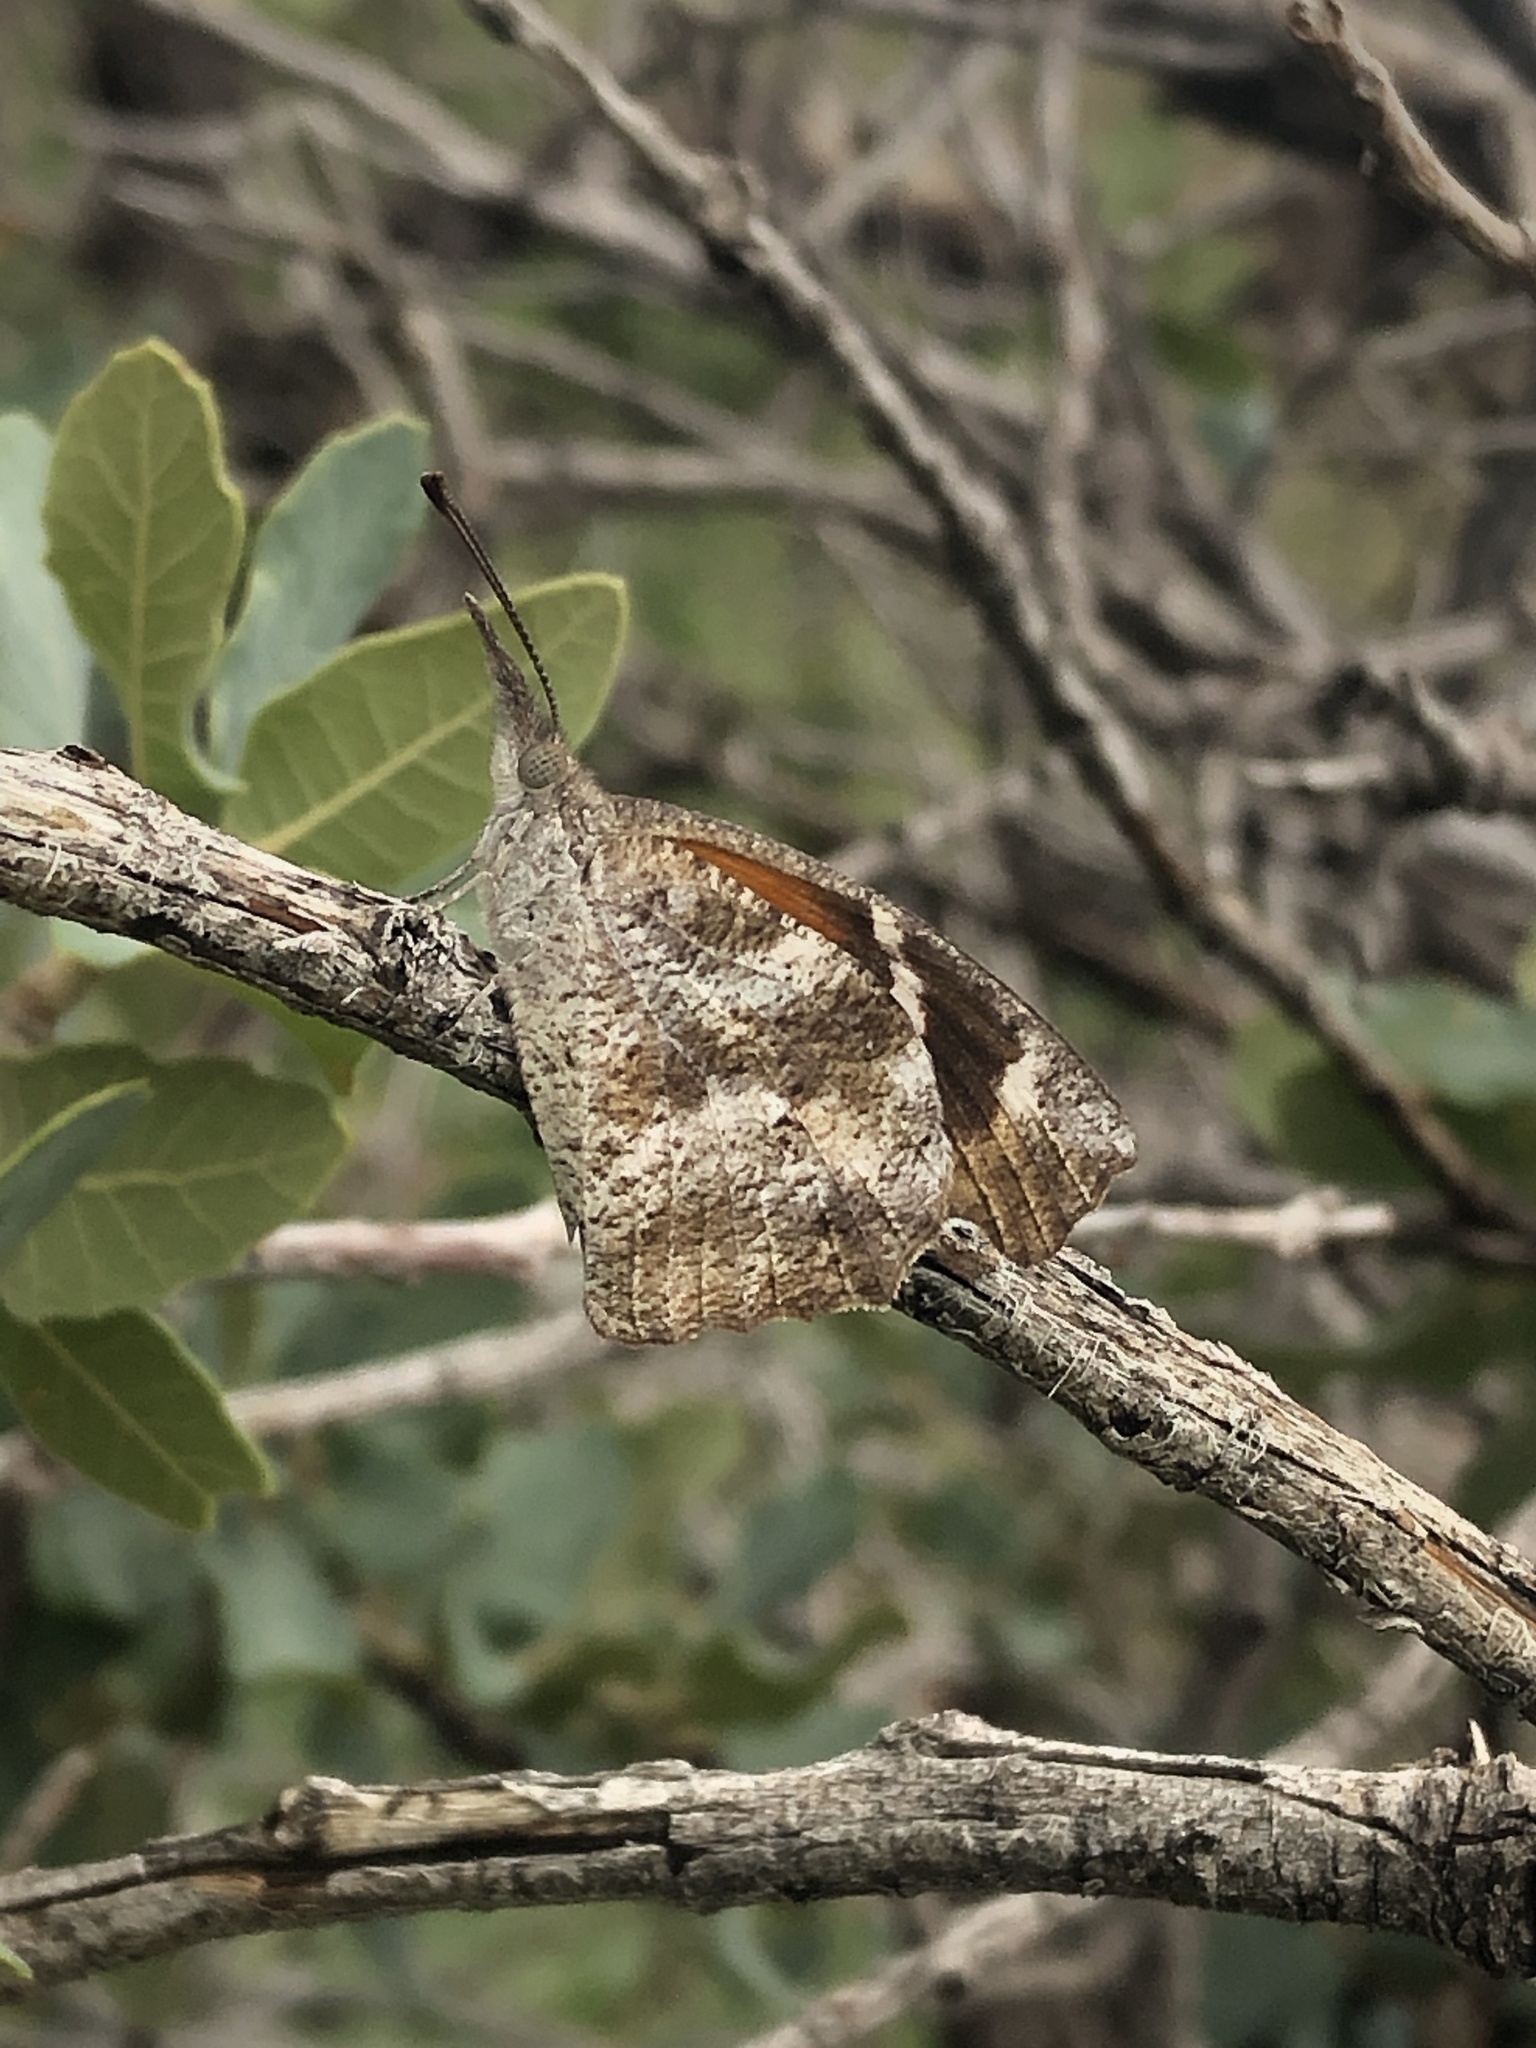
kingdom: Animalia
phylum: Arthropoda
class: Insecta
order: Lepidoptera
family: Nymphalidae
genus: Libytheana
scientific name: Libytheana carinenta
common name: American snout
